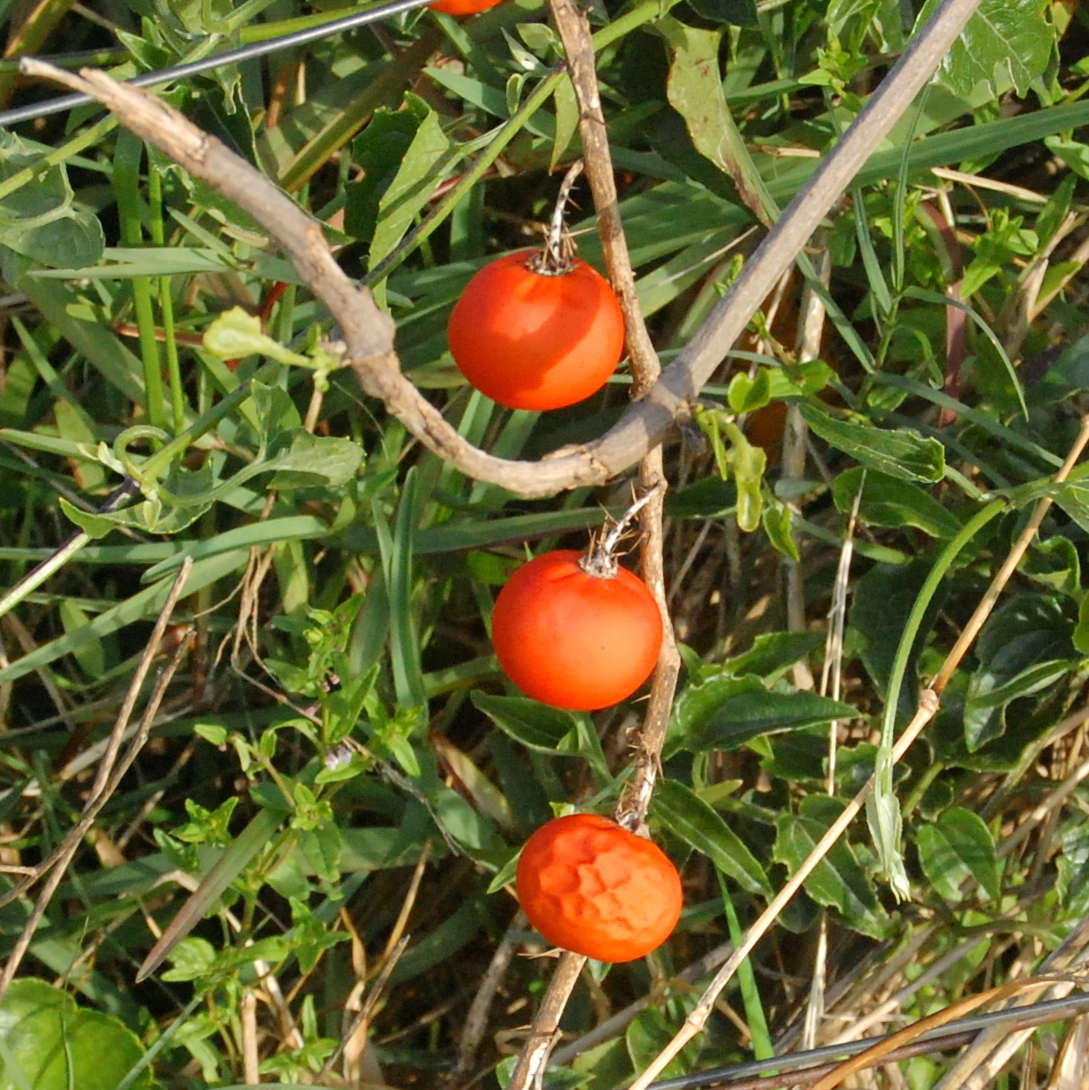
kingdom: Plantae
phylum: Tracheophyta
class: Magnoliopsida
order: Solanales
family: Solanaceae
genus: Solanum
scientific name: Solanum capsicoides
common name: Cockroach berry
